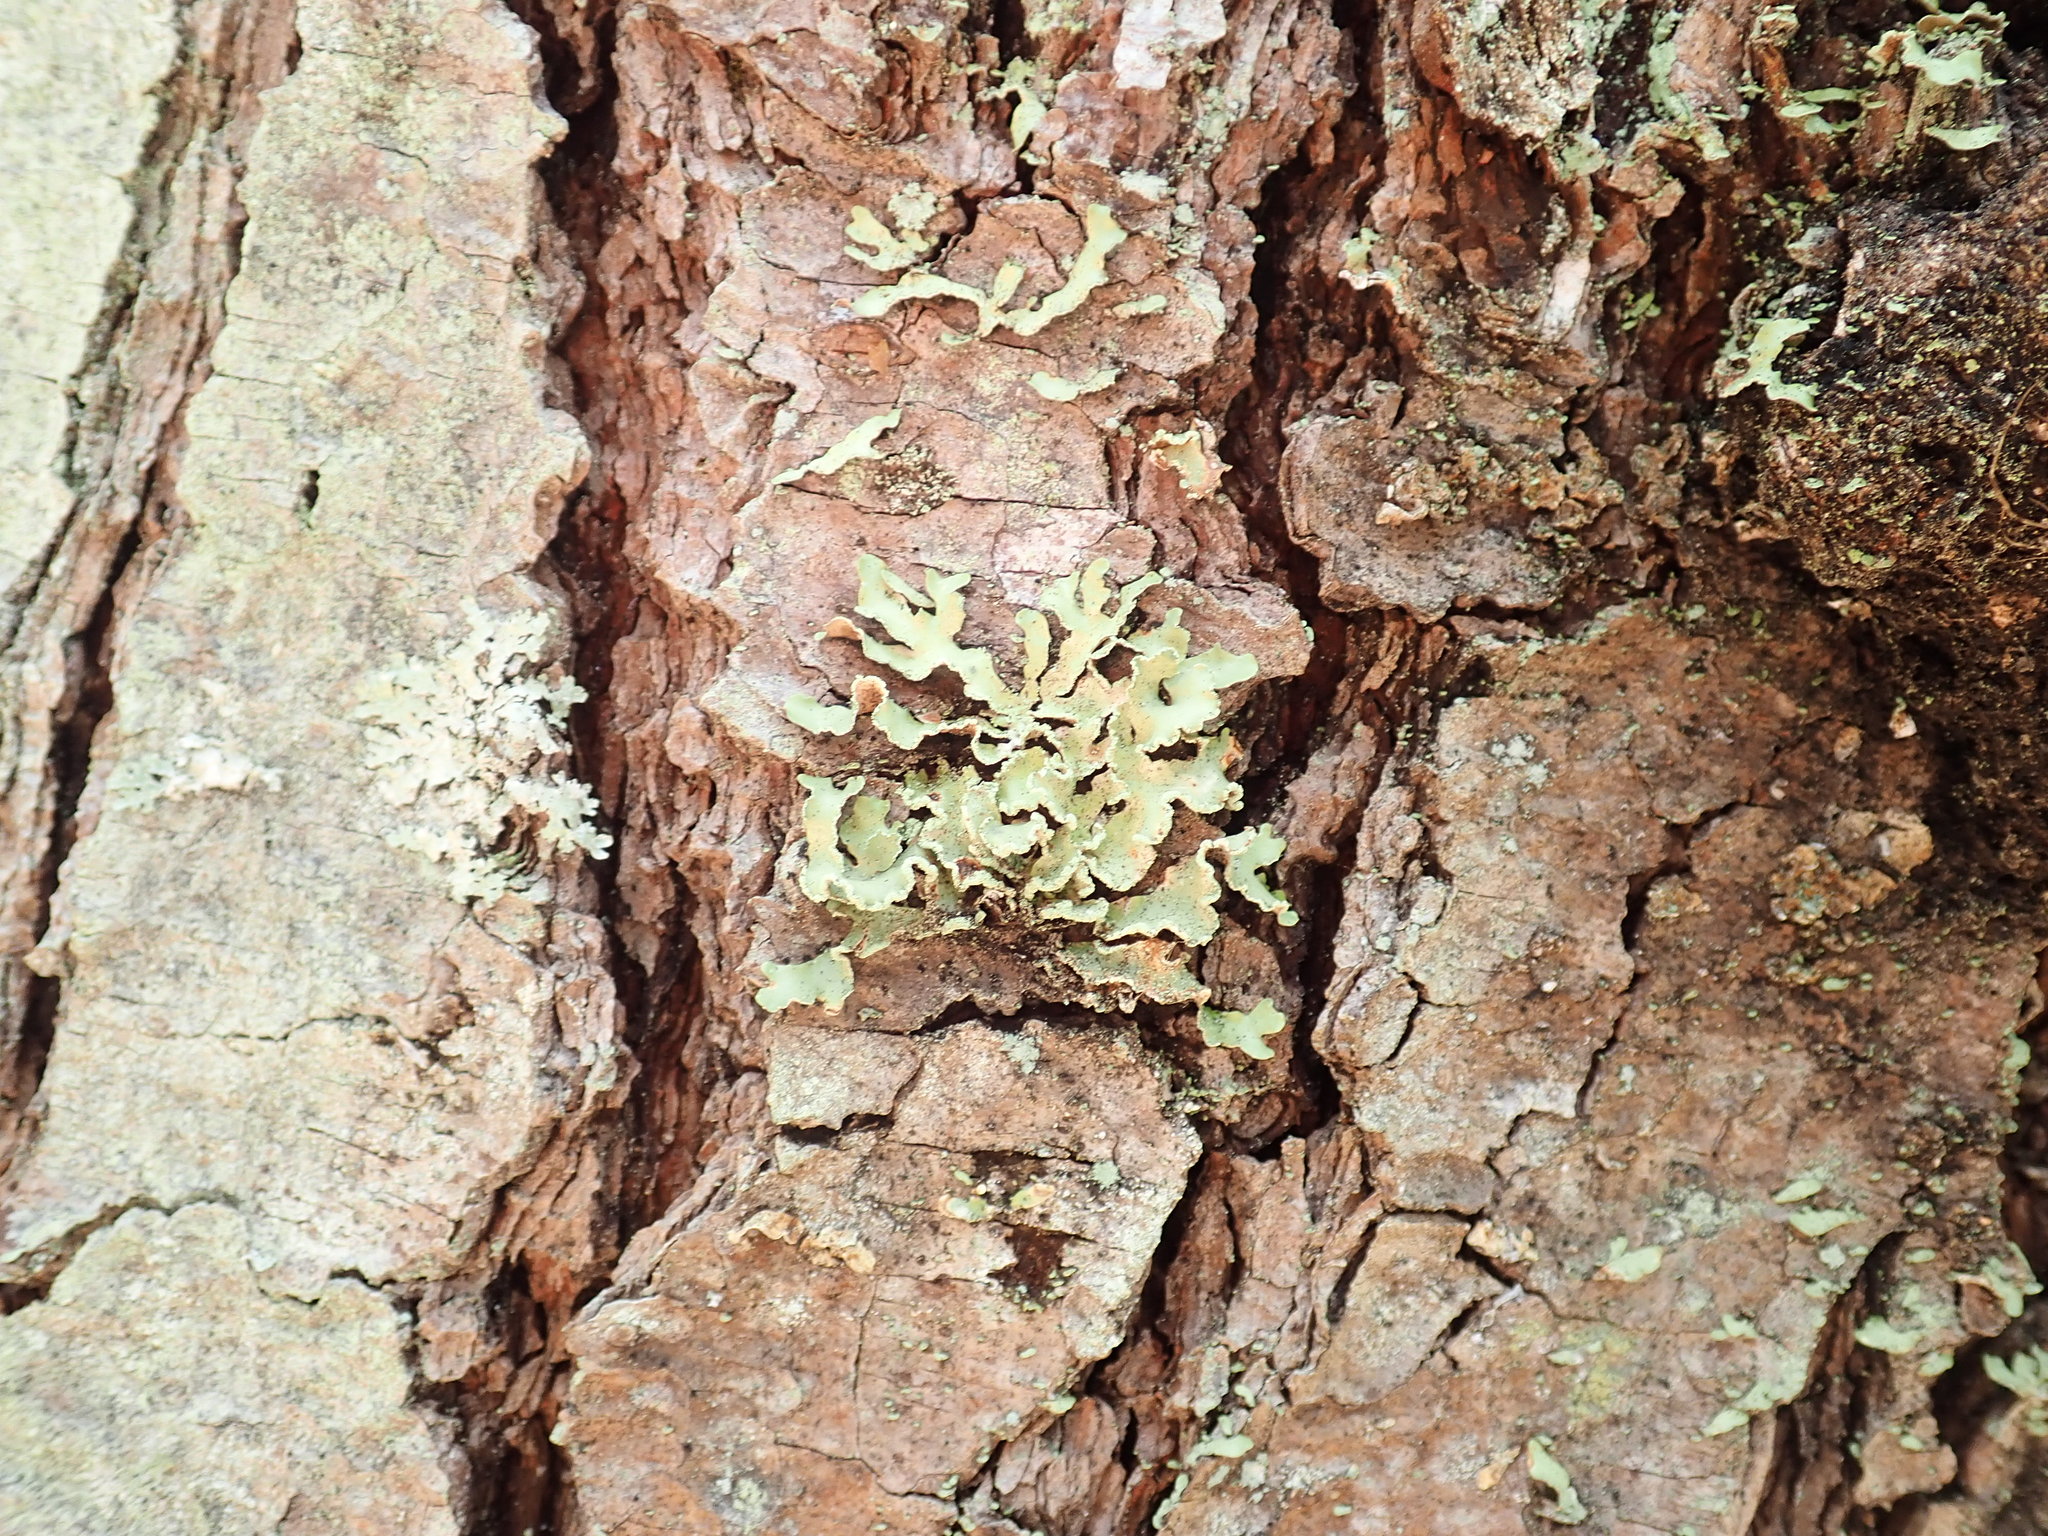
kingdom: Fungi
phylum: Ascomycota
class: Lecanoromycetes
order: Lecanorales
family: Parmeliaceae
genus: Usnocetraria
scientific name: Usnocetraria oakesiana
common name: Yellow ribbon lichen
